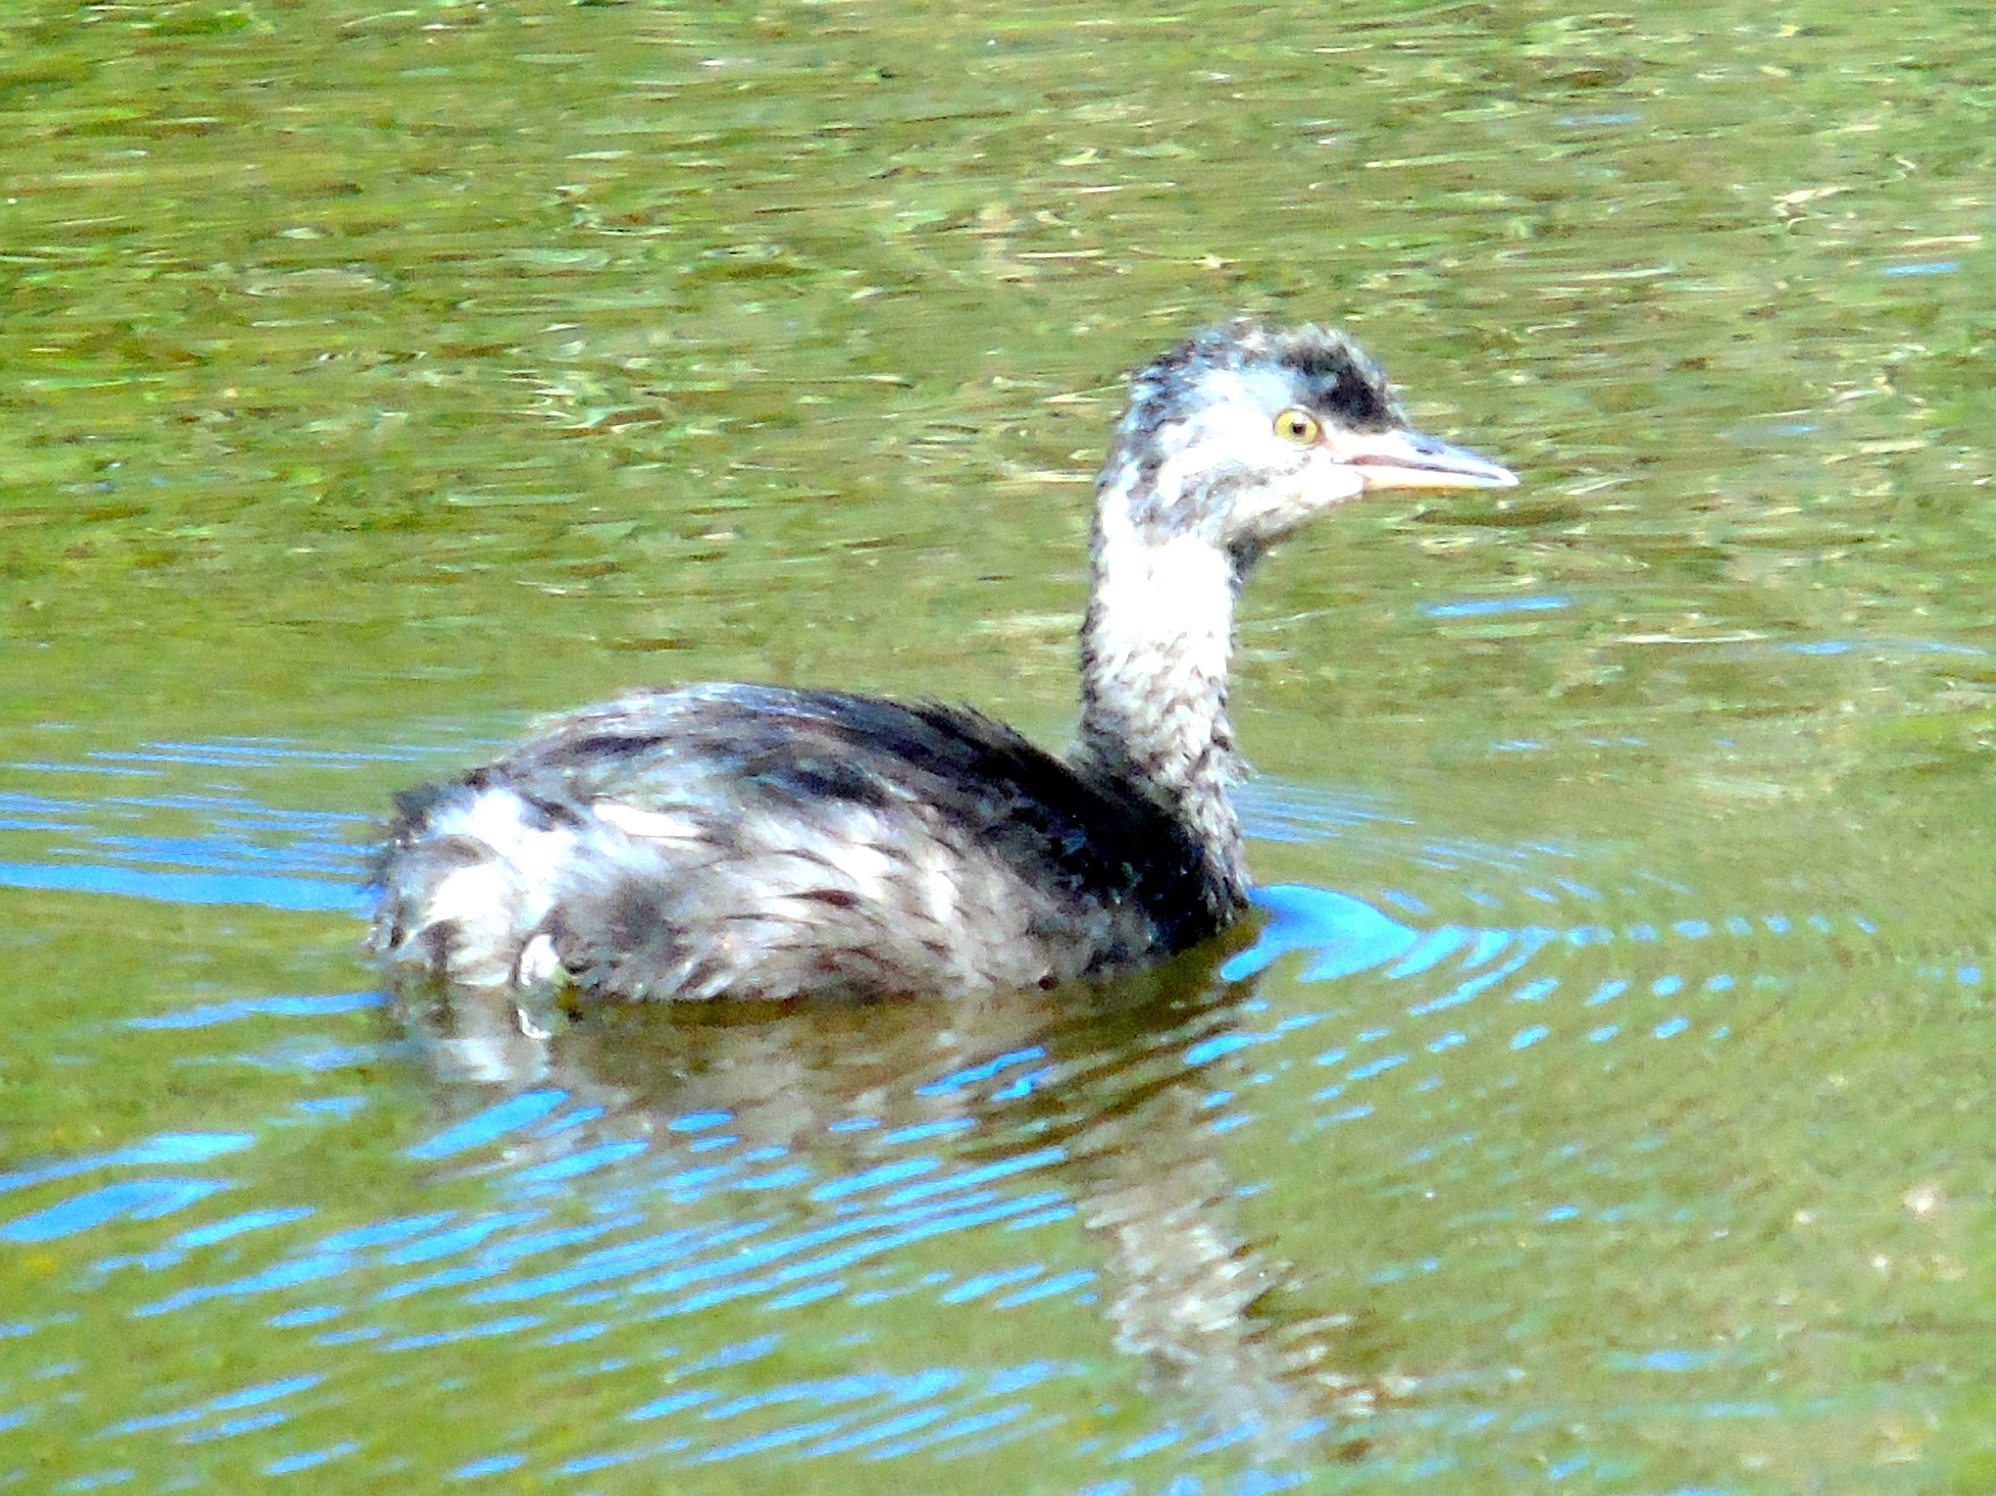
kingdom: Animalia
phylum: Chordata
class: Aves
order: Podicipediformes
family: Podicipedidae
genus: Tachybaptus
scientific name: Tachybaptus dominicus
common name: Least grebe
